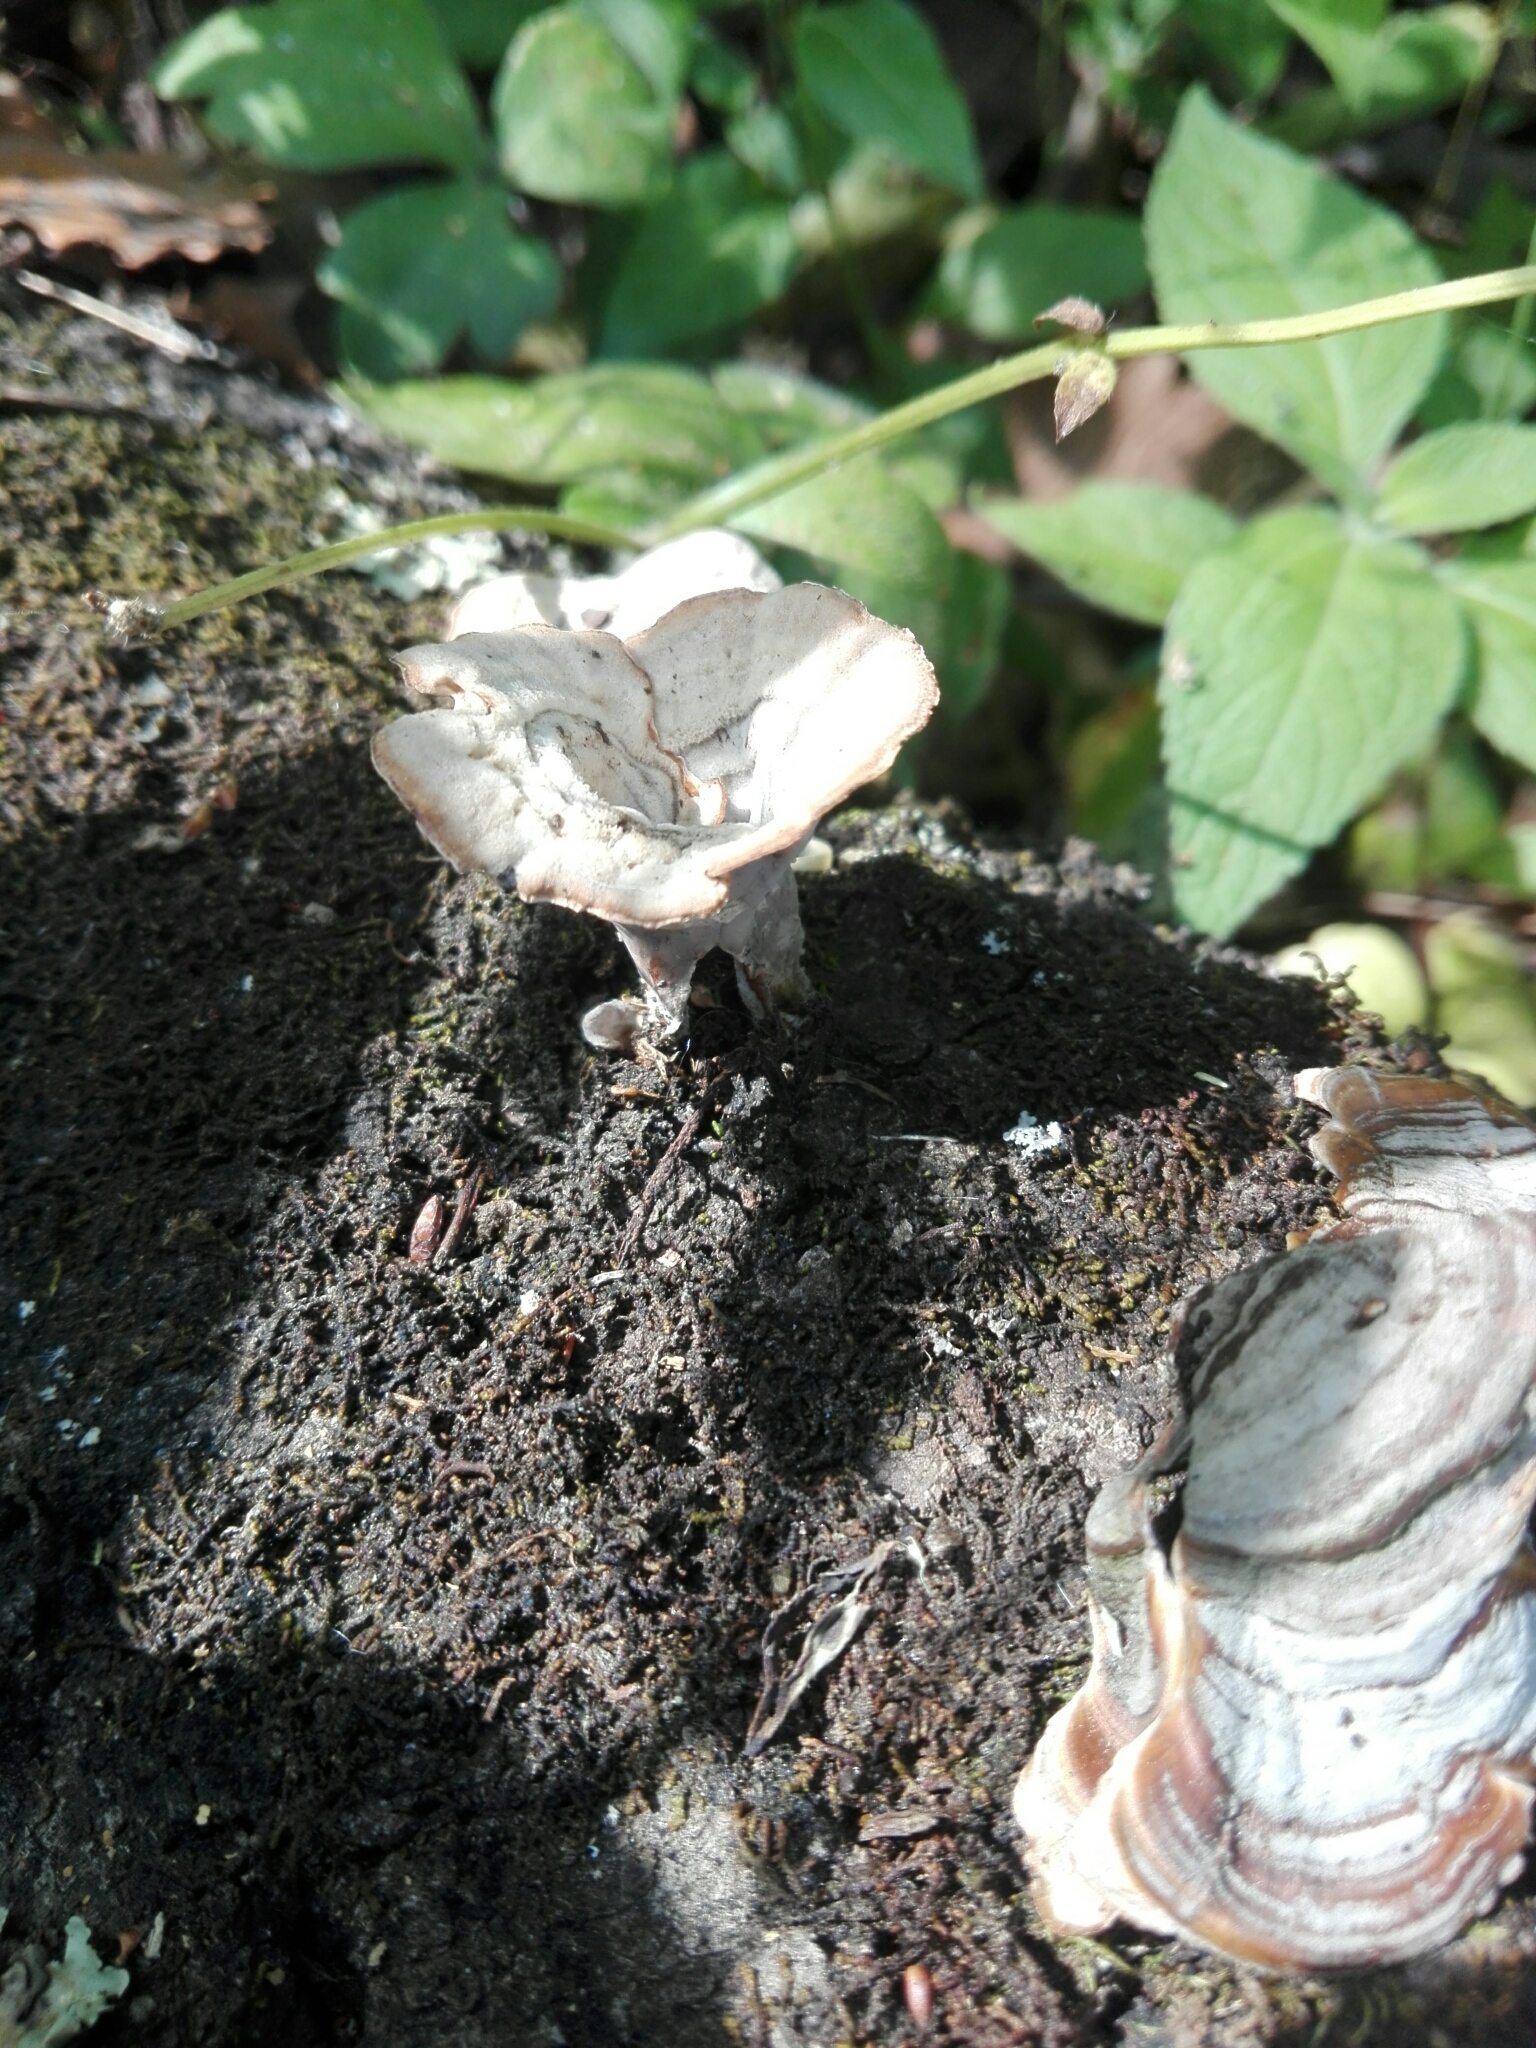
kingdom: Fungi
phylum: Basidiomycota
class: Agaricomycetes
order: Polyporales
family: Polyporaceae
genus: Trametes
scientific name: Trametes versicolor
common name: Turkeytail
